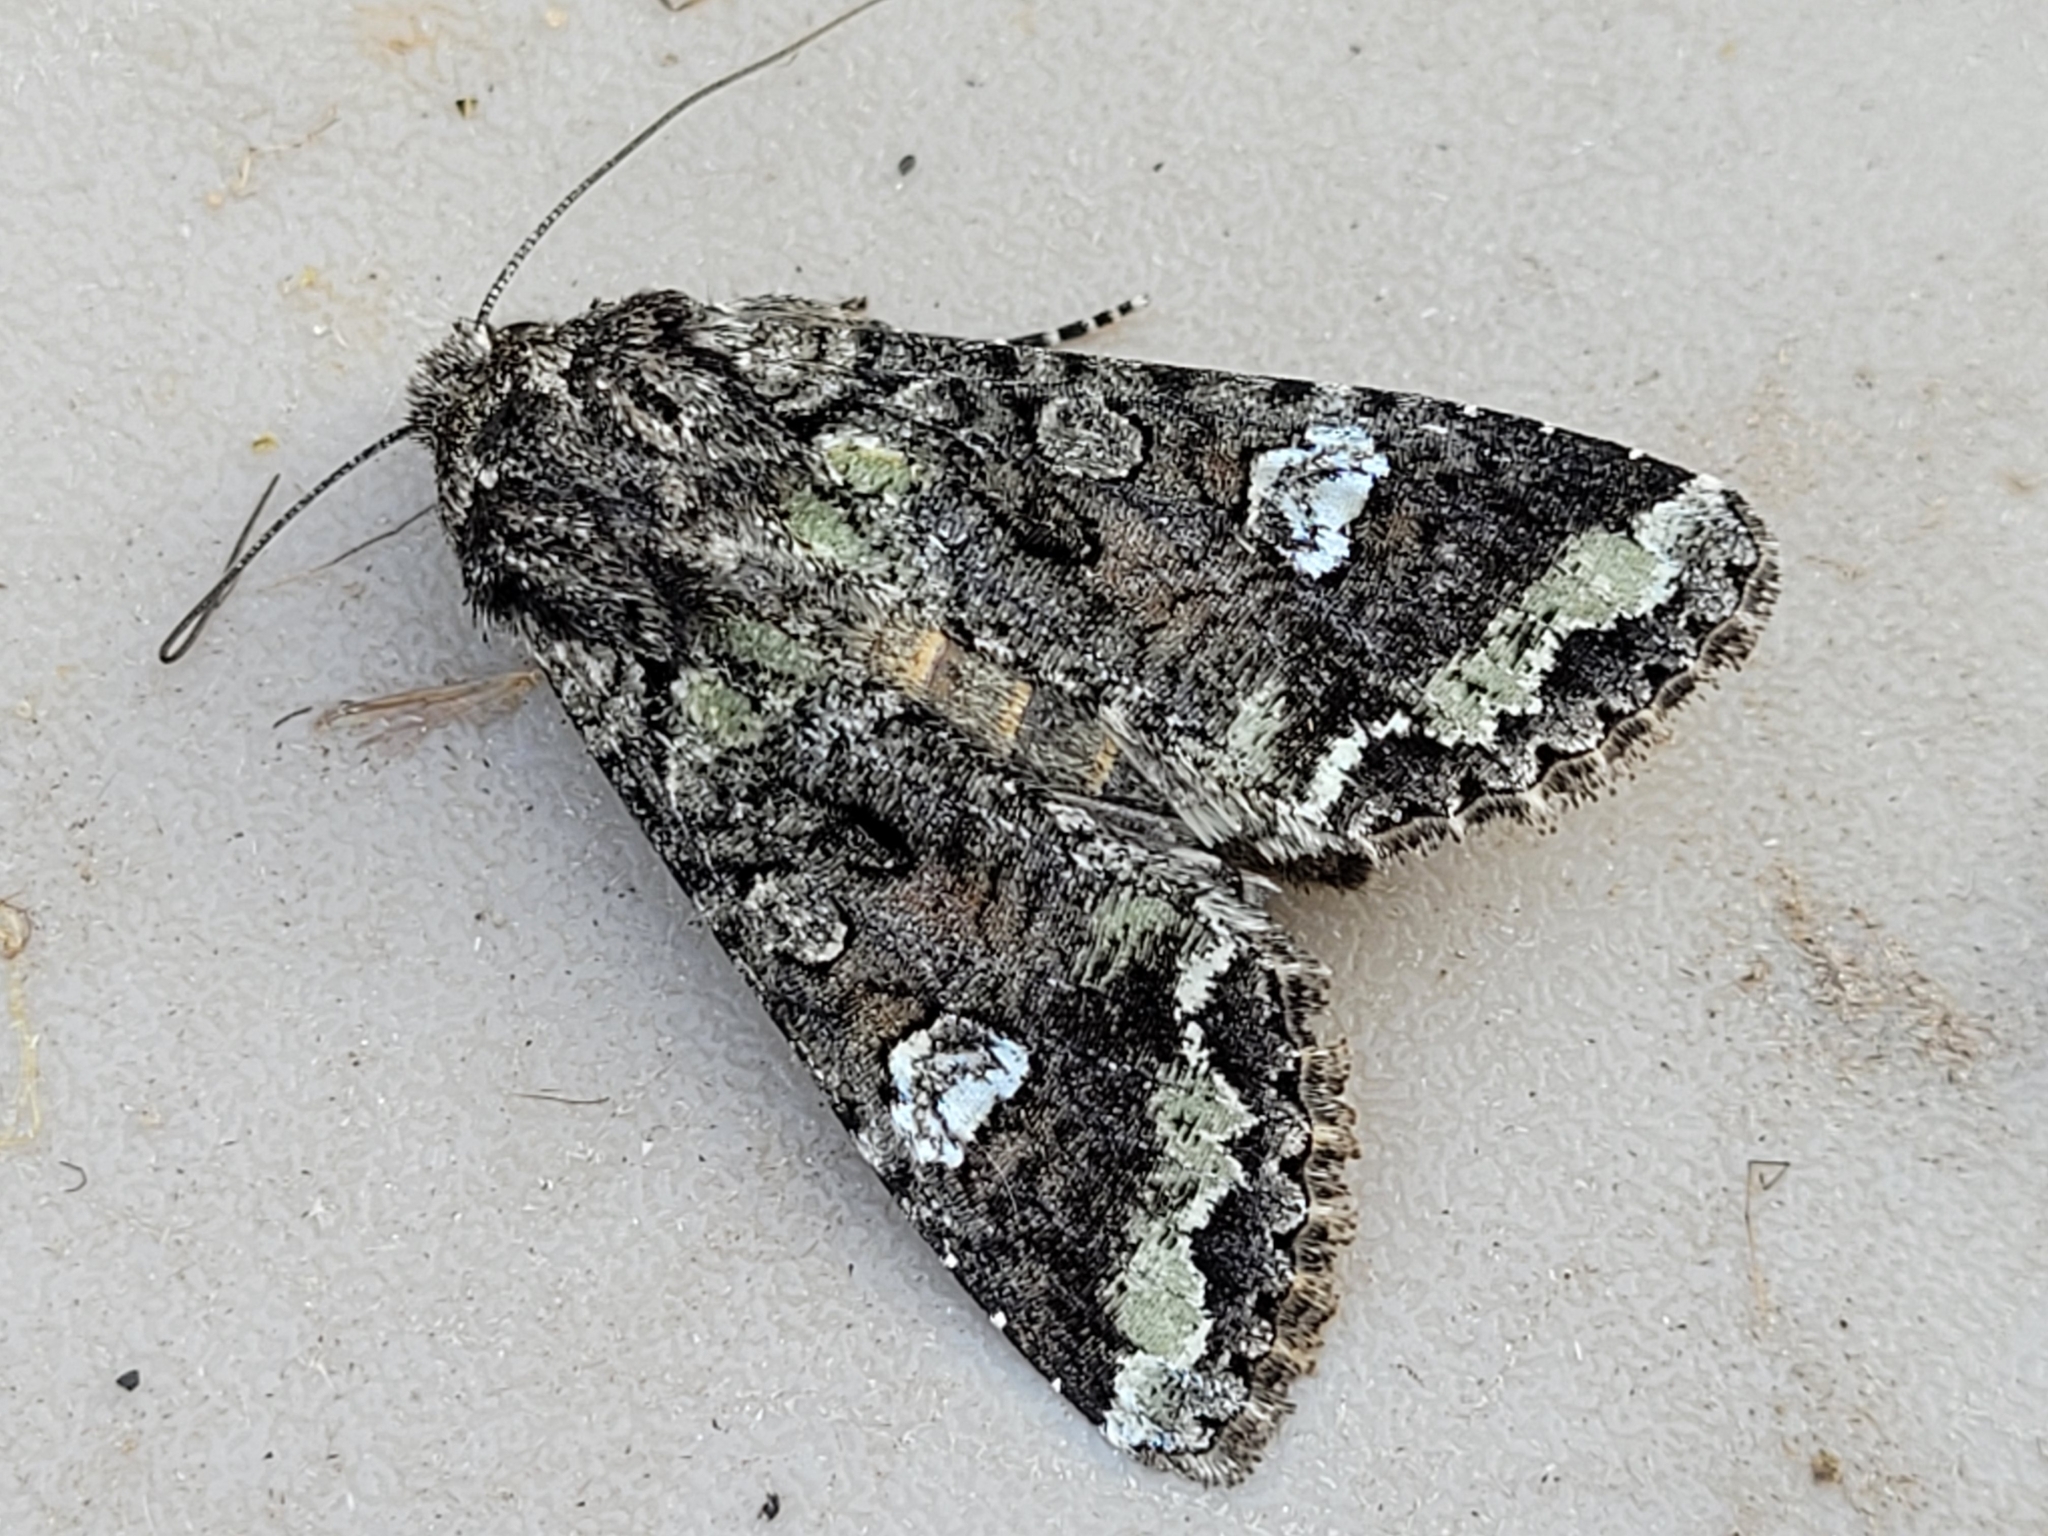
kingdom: Animalia
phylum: Arthropoda
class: Insecta
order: Lepidoptera
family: Noctuidae
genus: Mamestra
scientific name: Mamestra configurata
